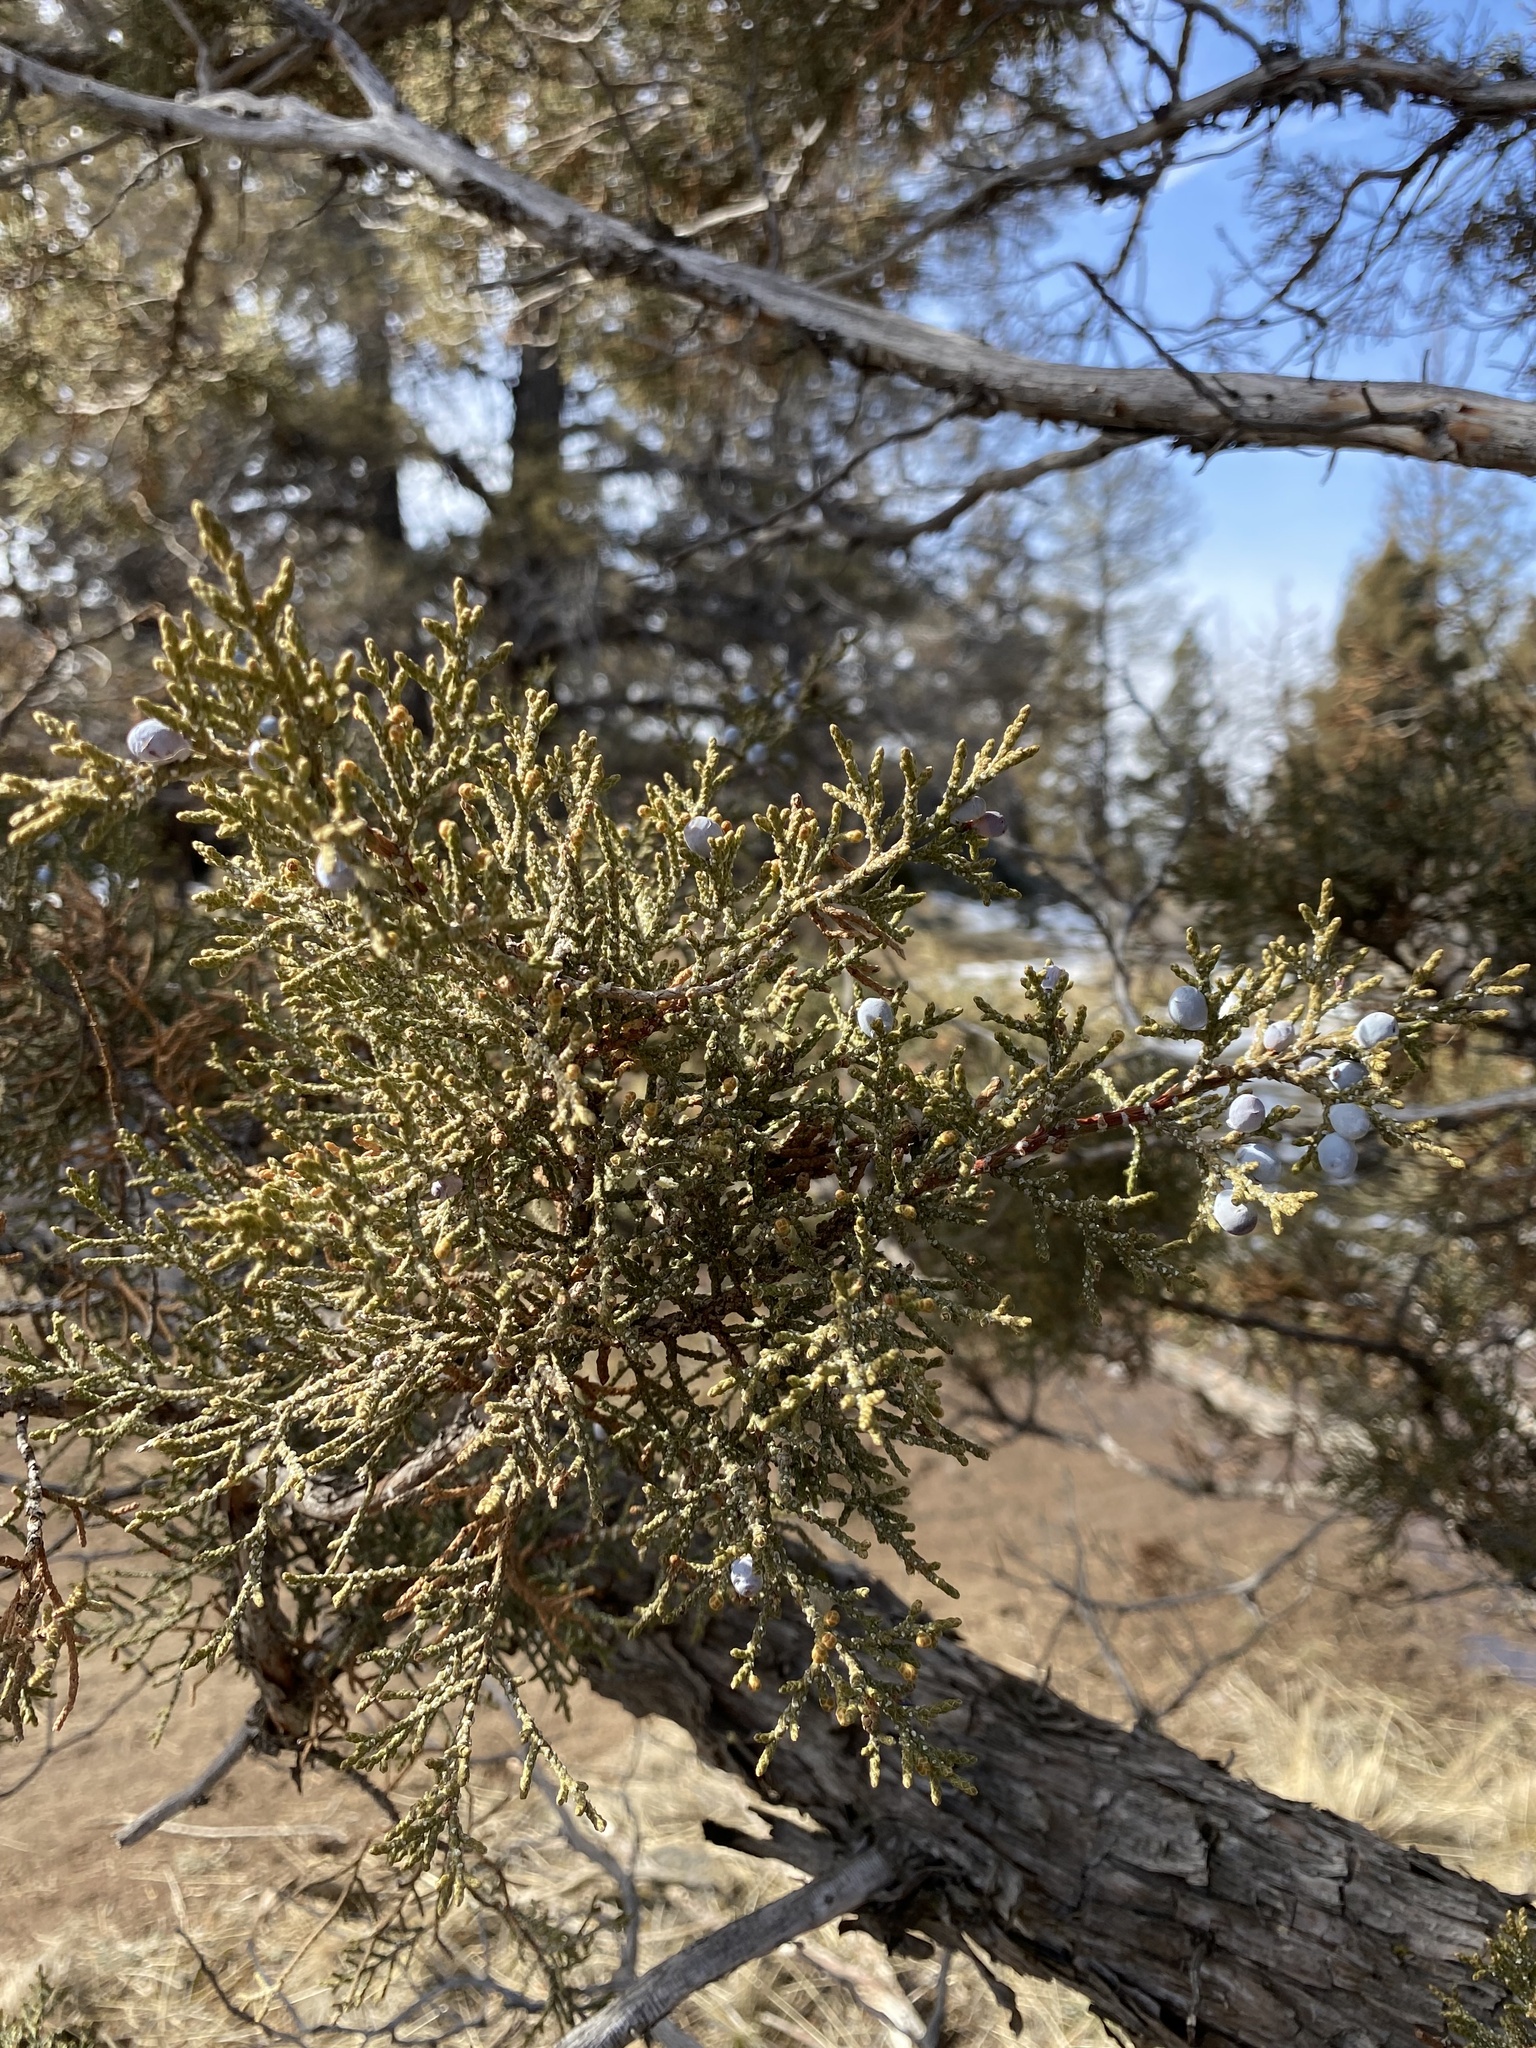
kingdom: Plantae
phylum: Tracheophyta
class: Pinopsida
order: Pinales
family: Cupressaceae
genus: Juniperus
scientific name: Juniperus occidentalis
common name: Western juniper
